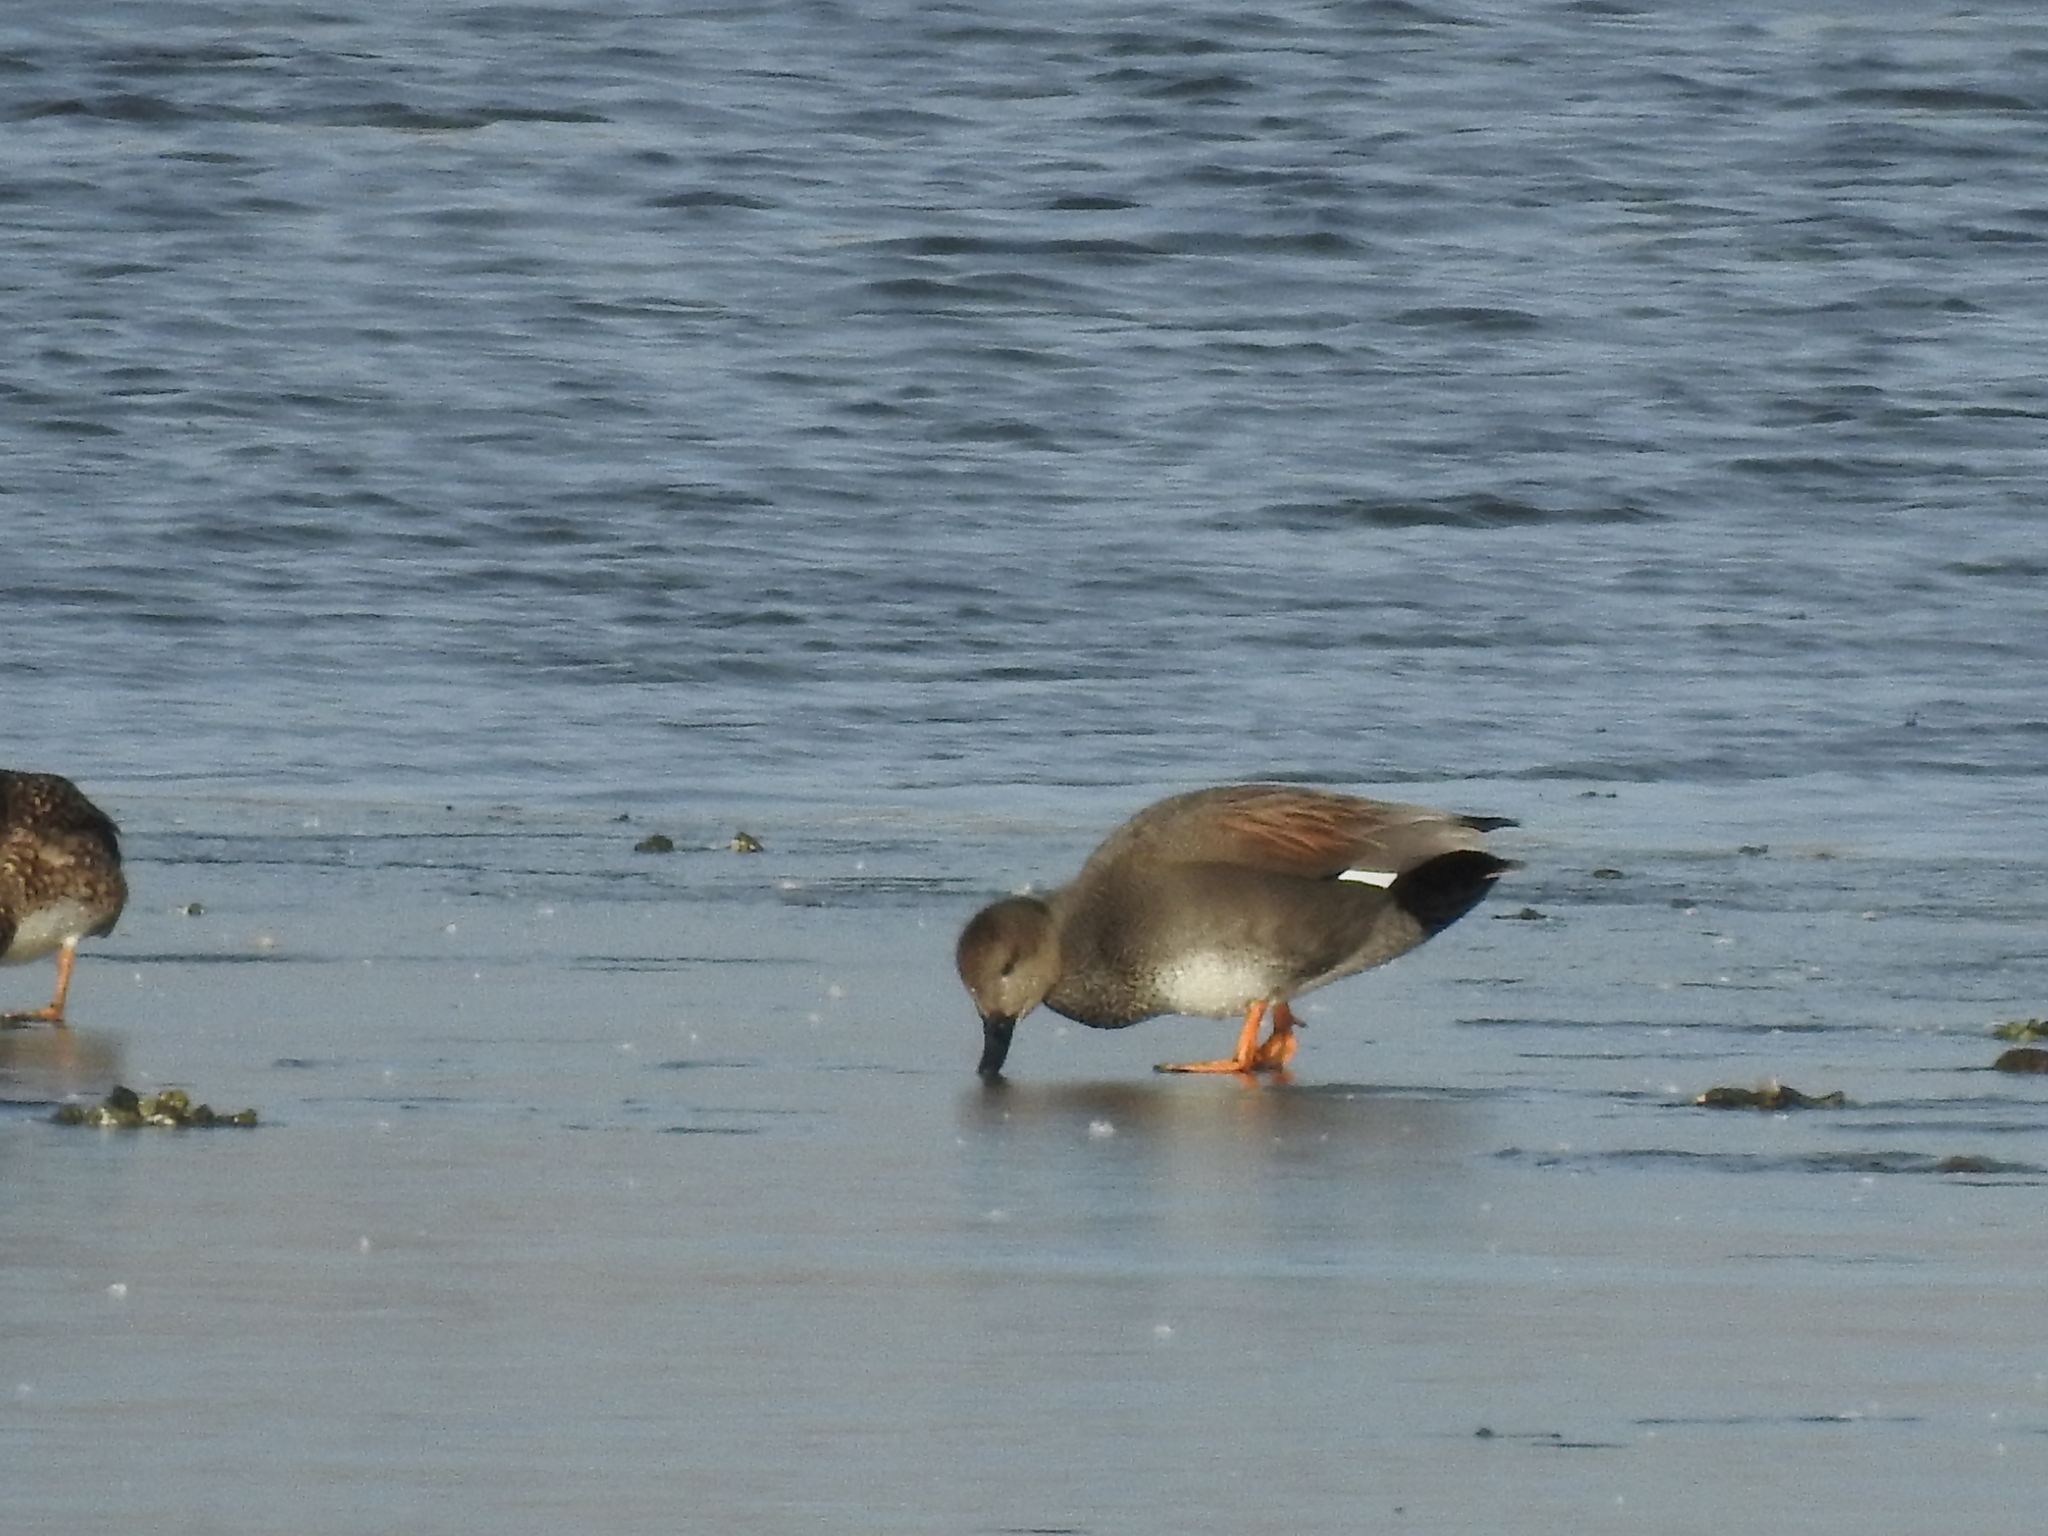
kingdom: Animalia
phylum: Chordata
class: Aves
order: Anseriformes
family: Anatidae
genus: Mareca
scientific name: Mareca strepera
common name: Gadwall
